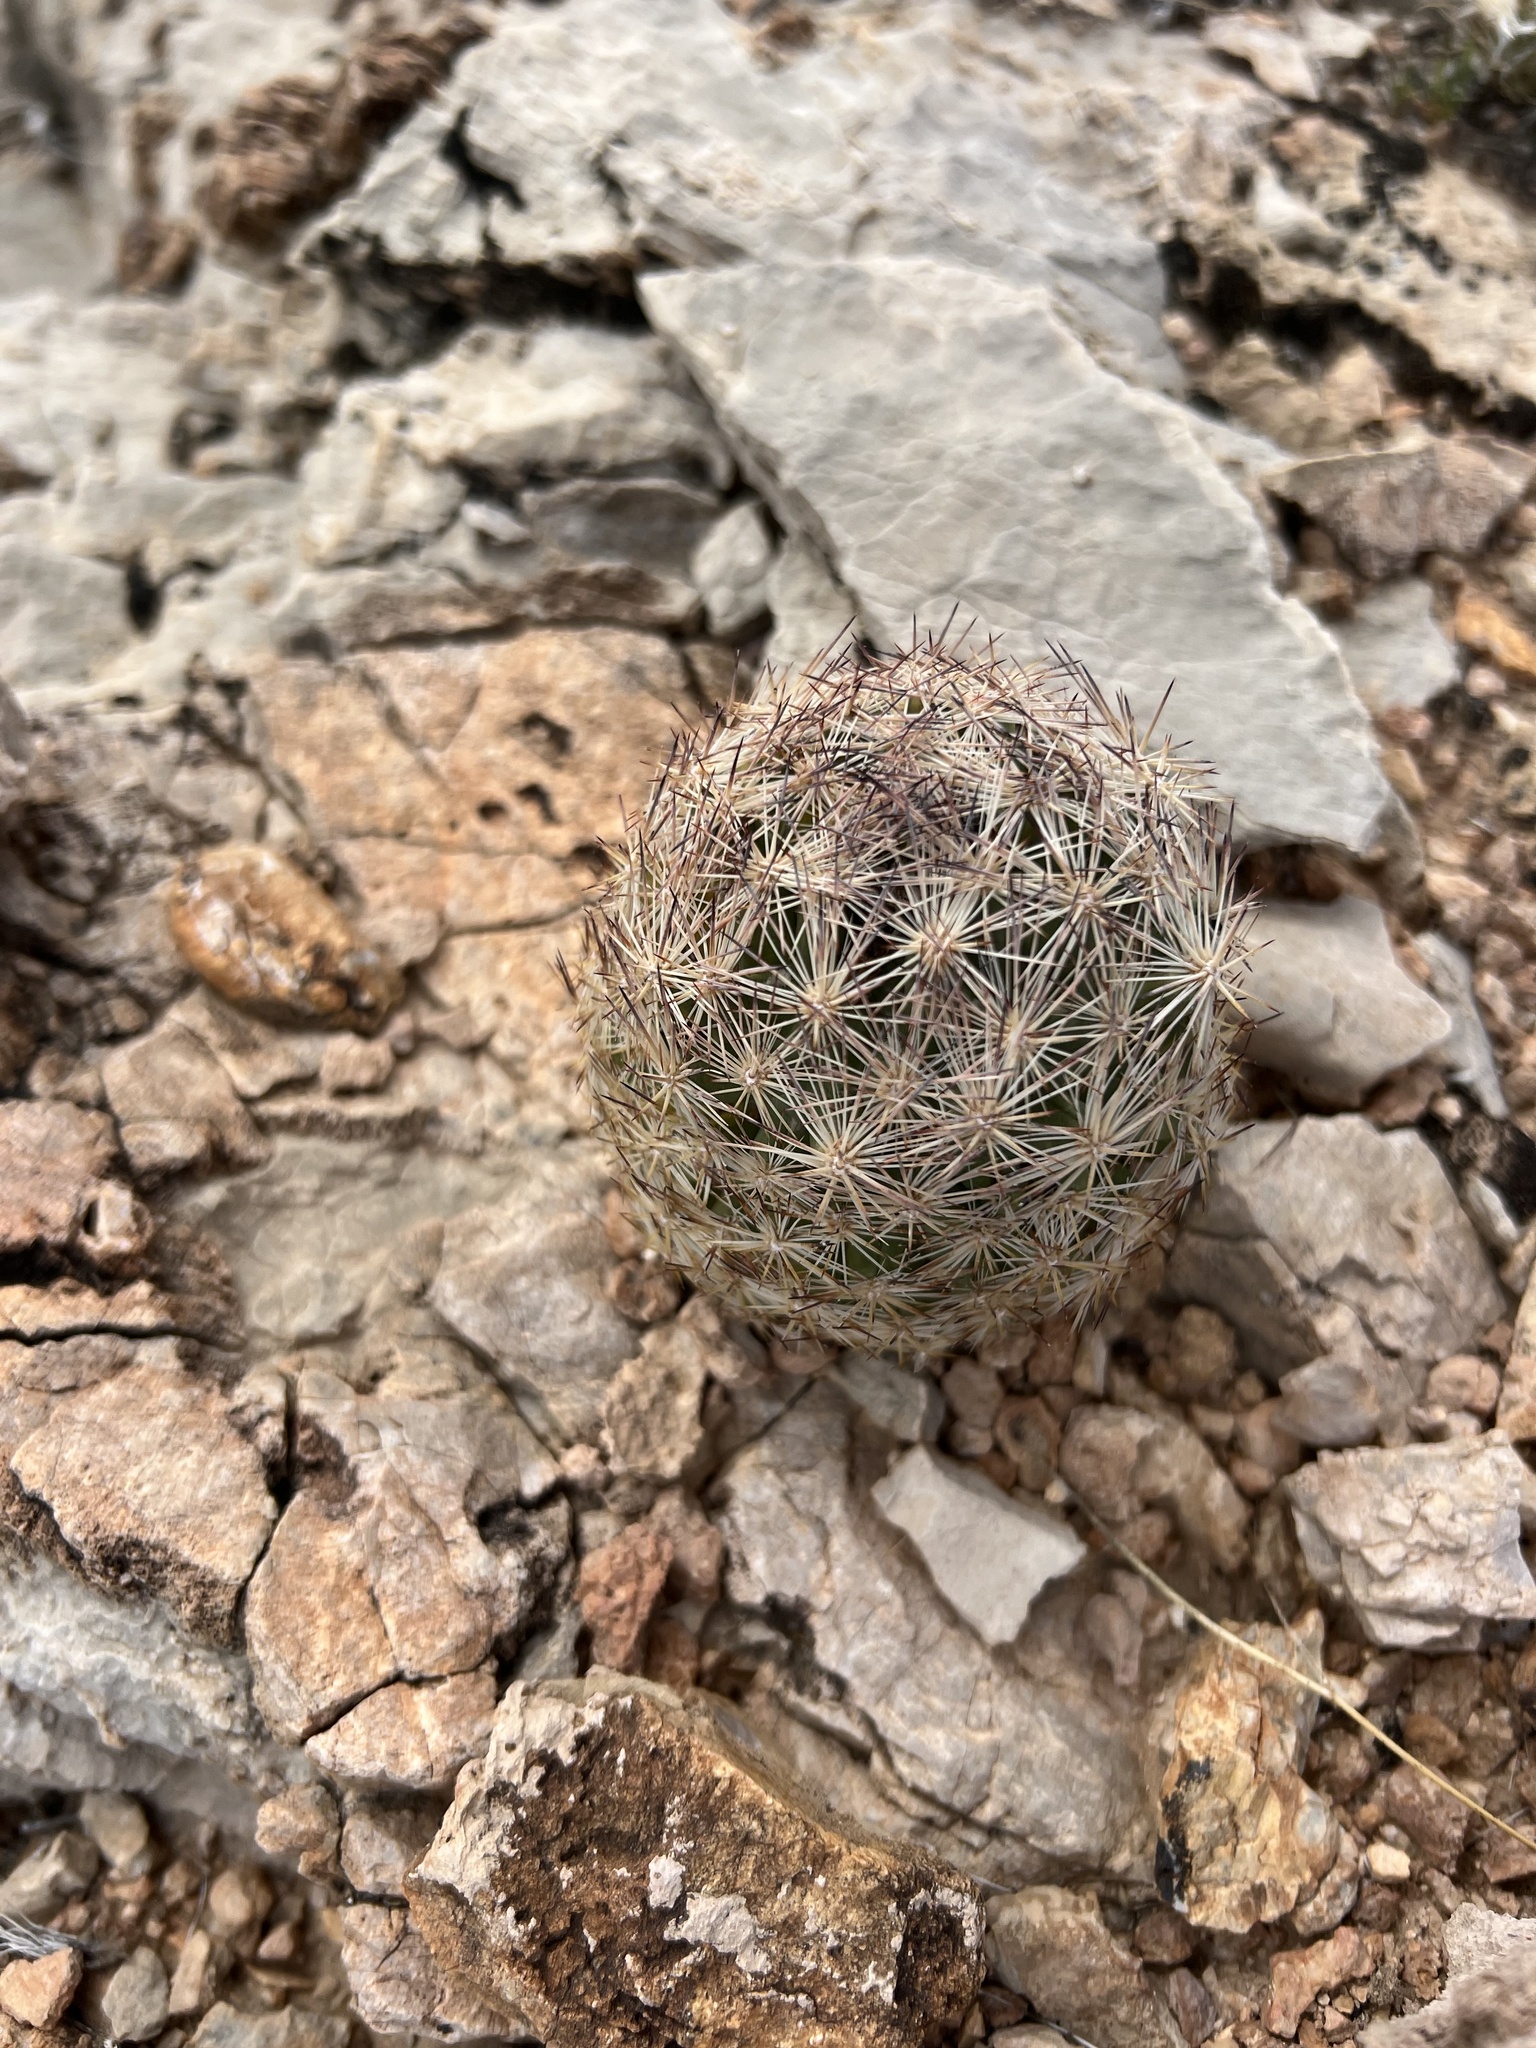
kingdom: Plantae
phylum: Tracheophyta
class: Magnoliopsida
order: Caryophyllales
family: Cactaceae
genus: Pelecyphora
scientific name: Pelecyphora dasyacantha
